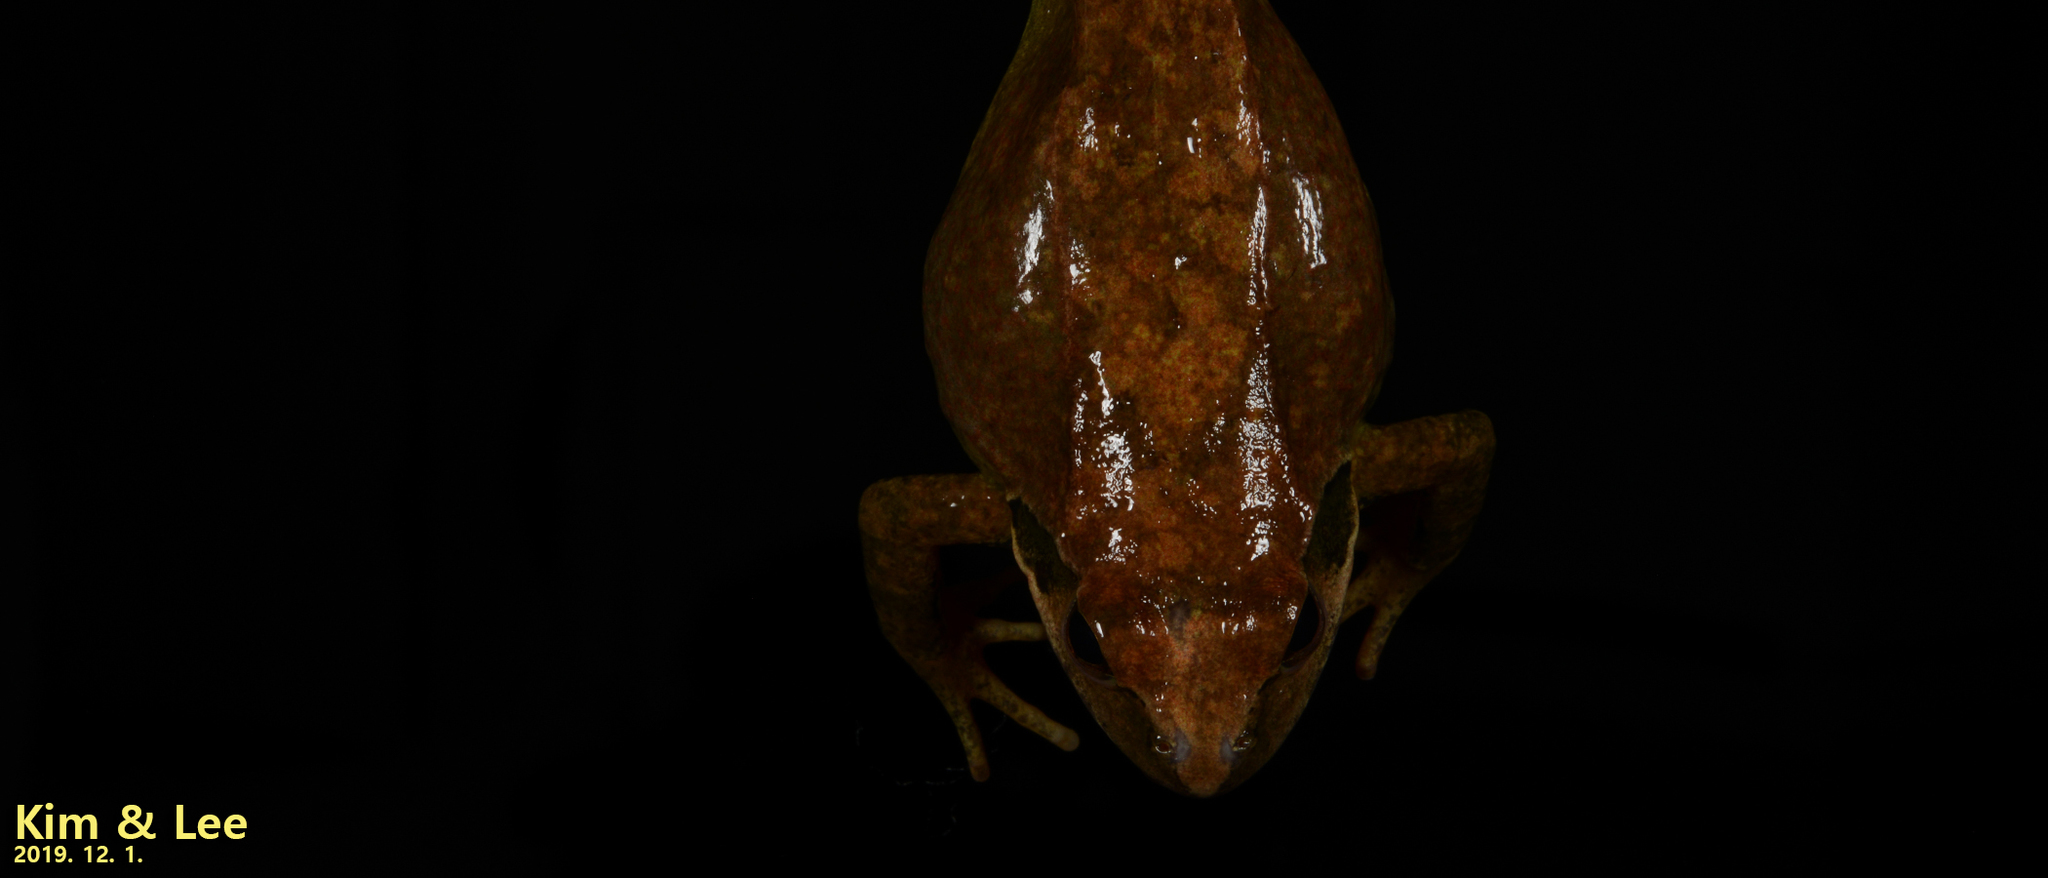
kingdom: Animalia
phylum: Chordata
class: Amphibia
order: Anura
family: Ranidae
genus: Rana
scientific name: Rana huanrenensis
